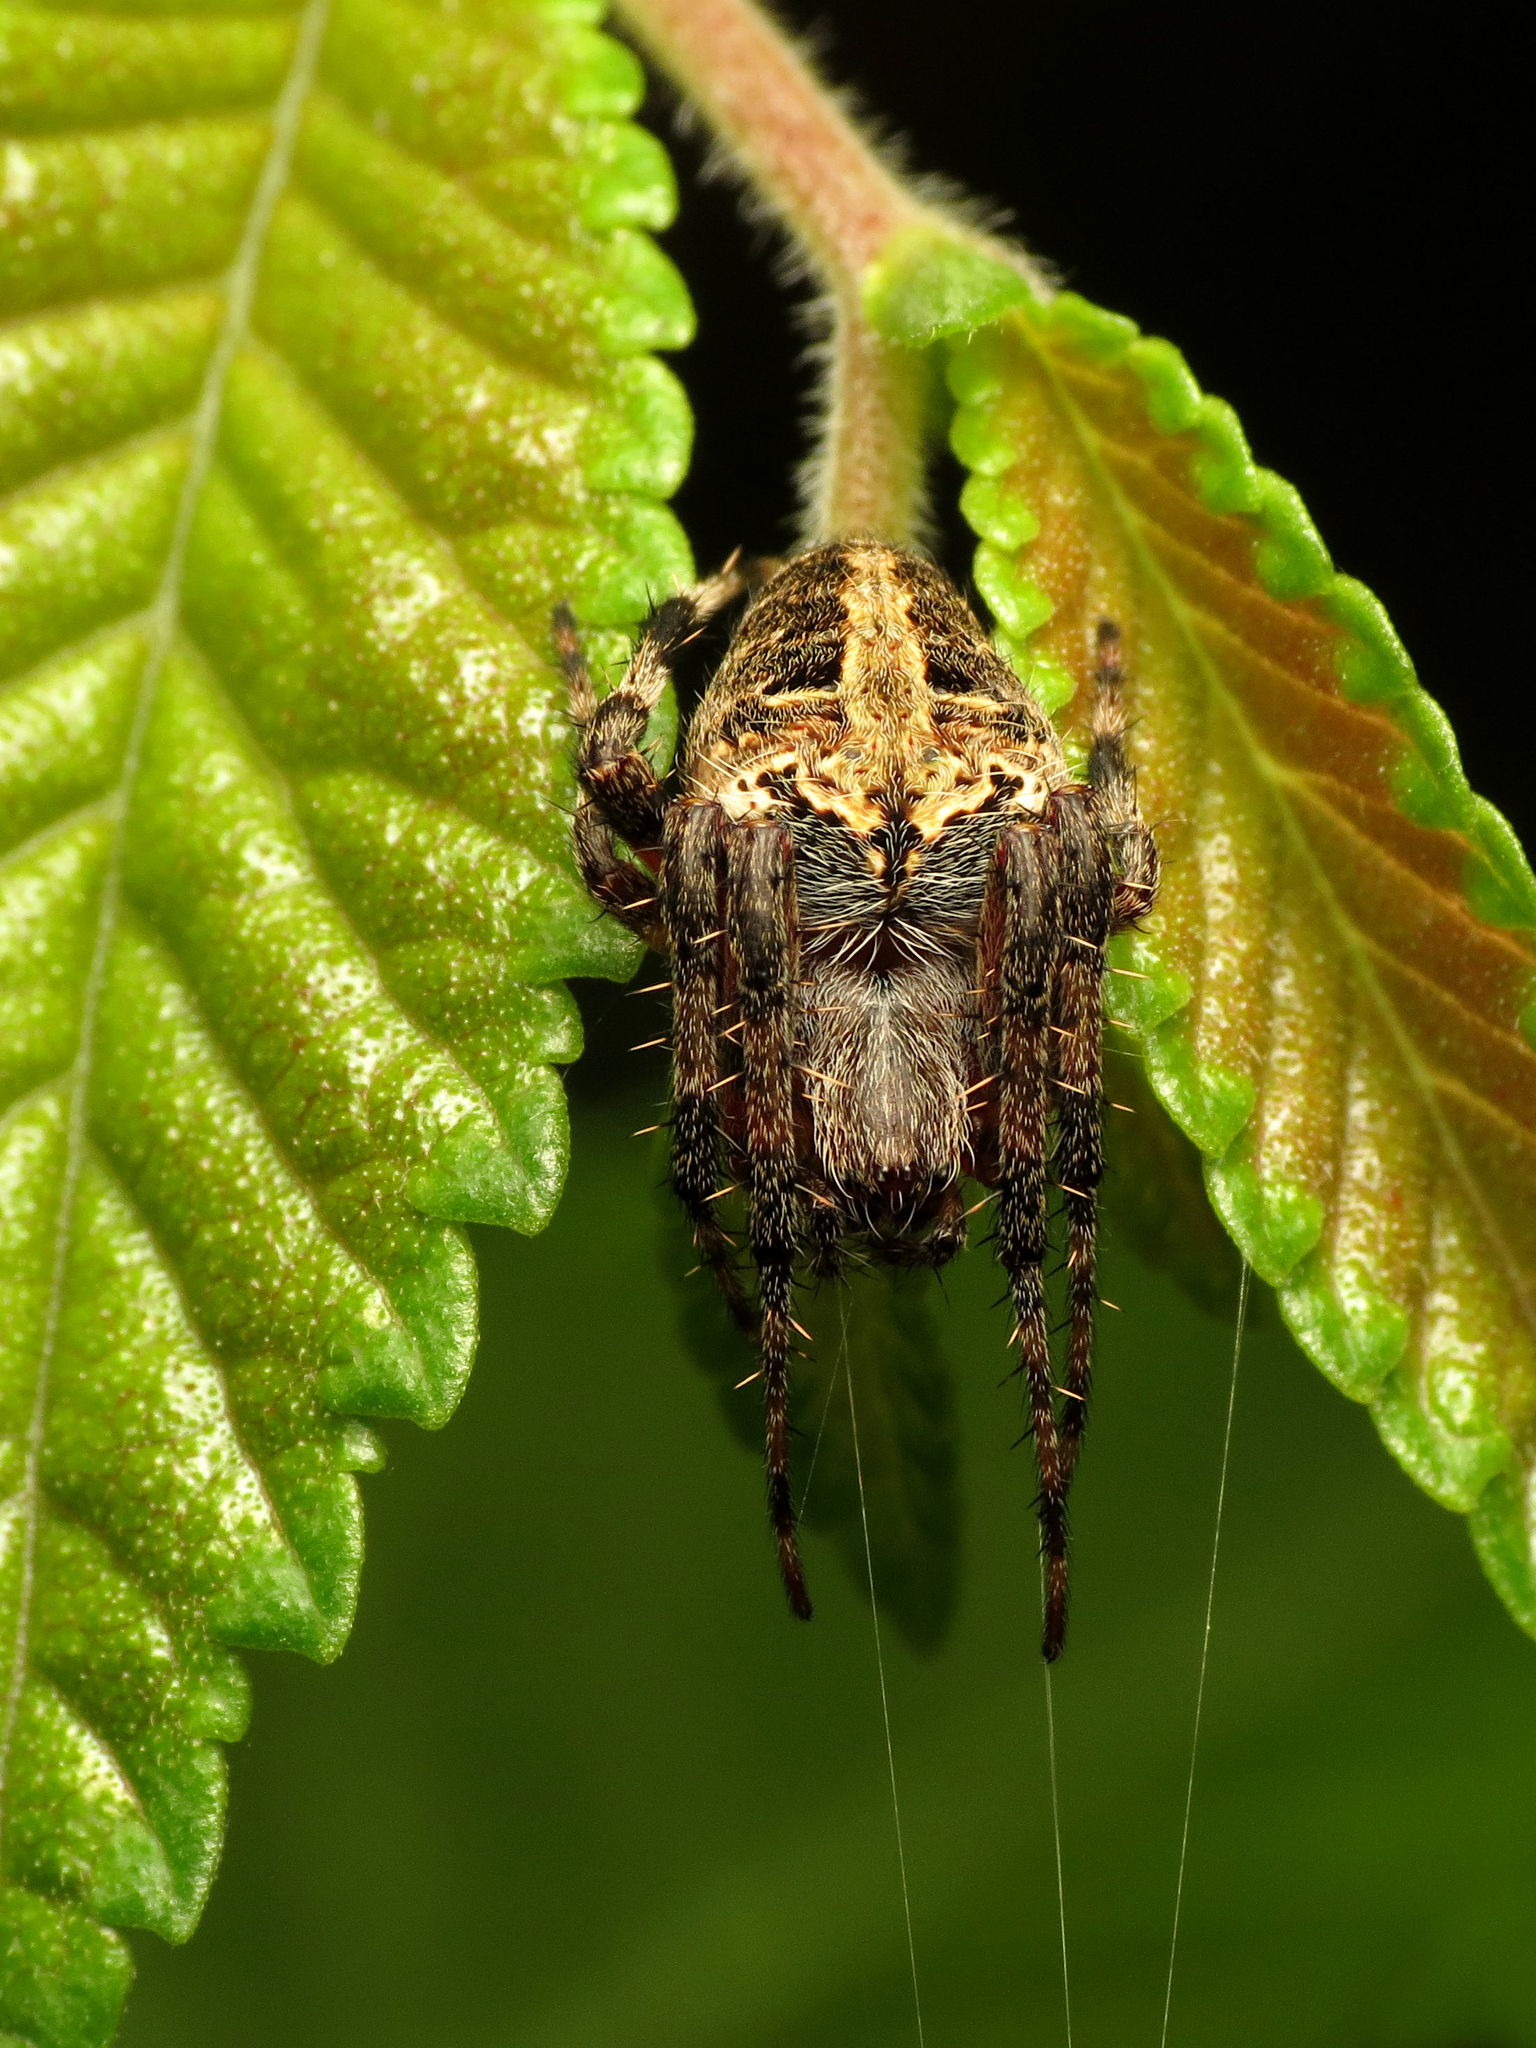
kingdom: Animalia
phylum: Arthropoda
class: Arachnida
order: Araneae
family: Araneidae
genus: Neoscona
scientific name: Neoscona domiciliorum
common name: Red-femured spotted orbweaver
